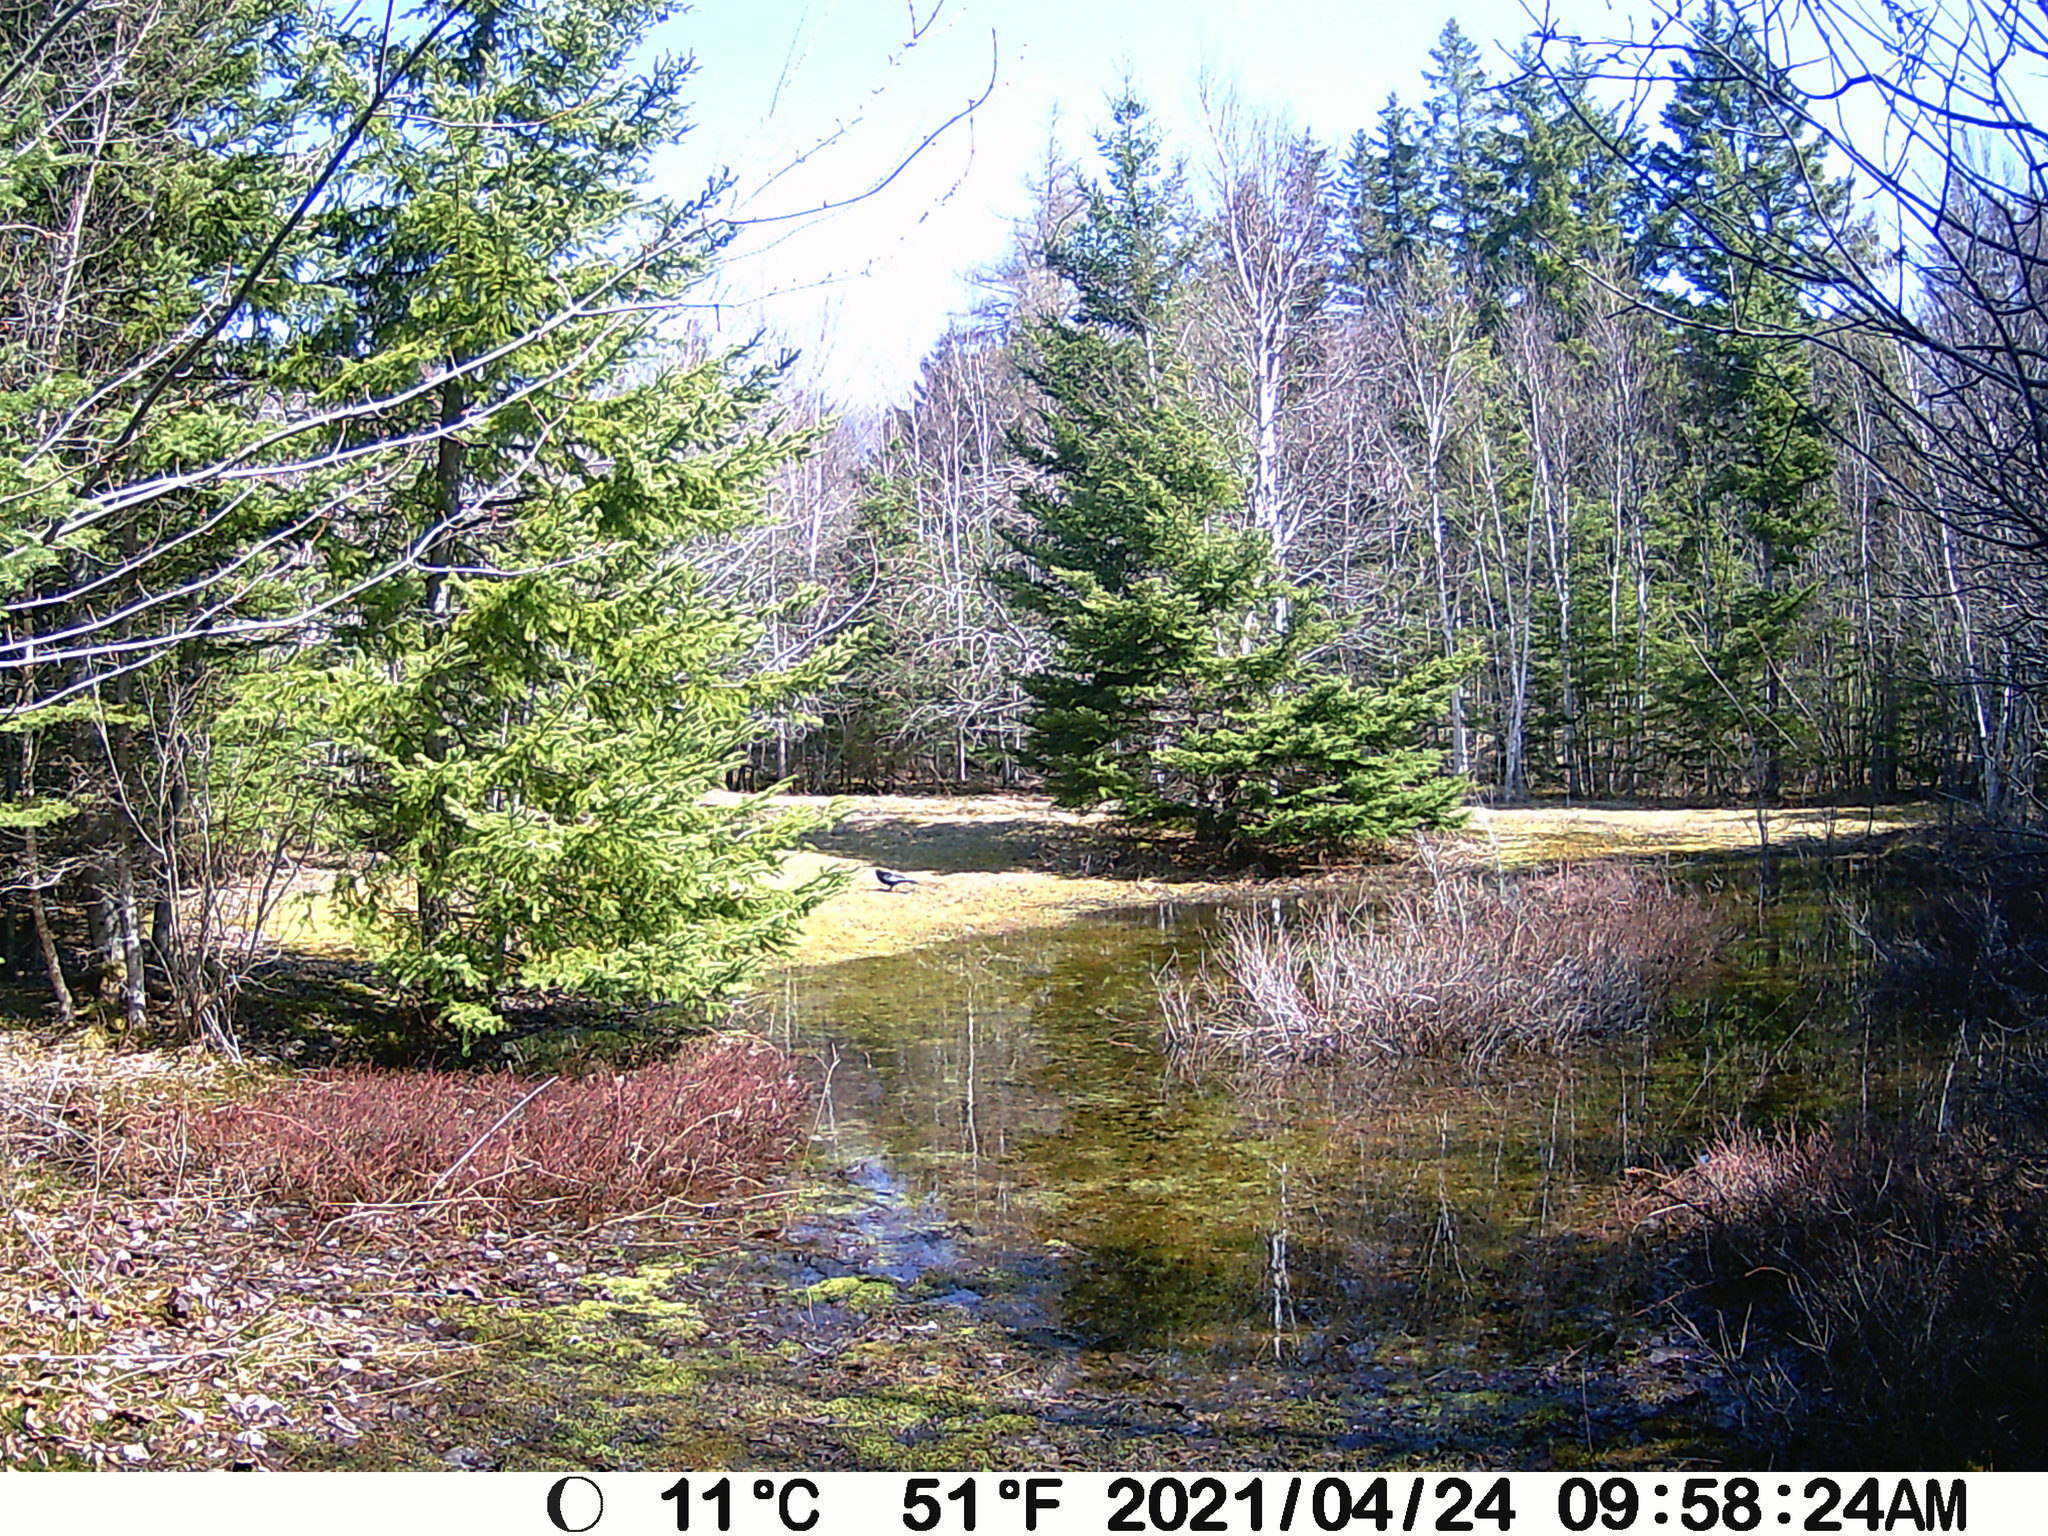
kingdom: Animalia
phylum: Chordata
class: Aves
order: Passeriformes
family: Corvidae
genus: Corvus
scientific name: Corvus brachyrhynchos
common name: American crow
